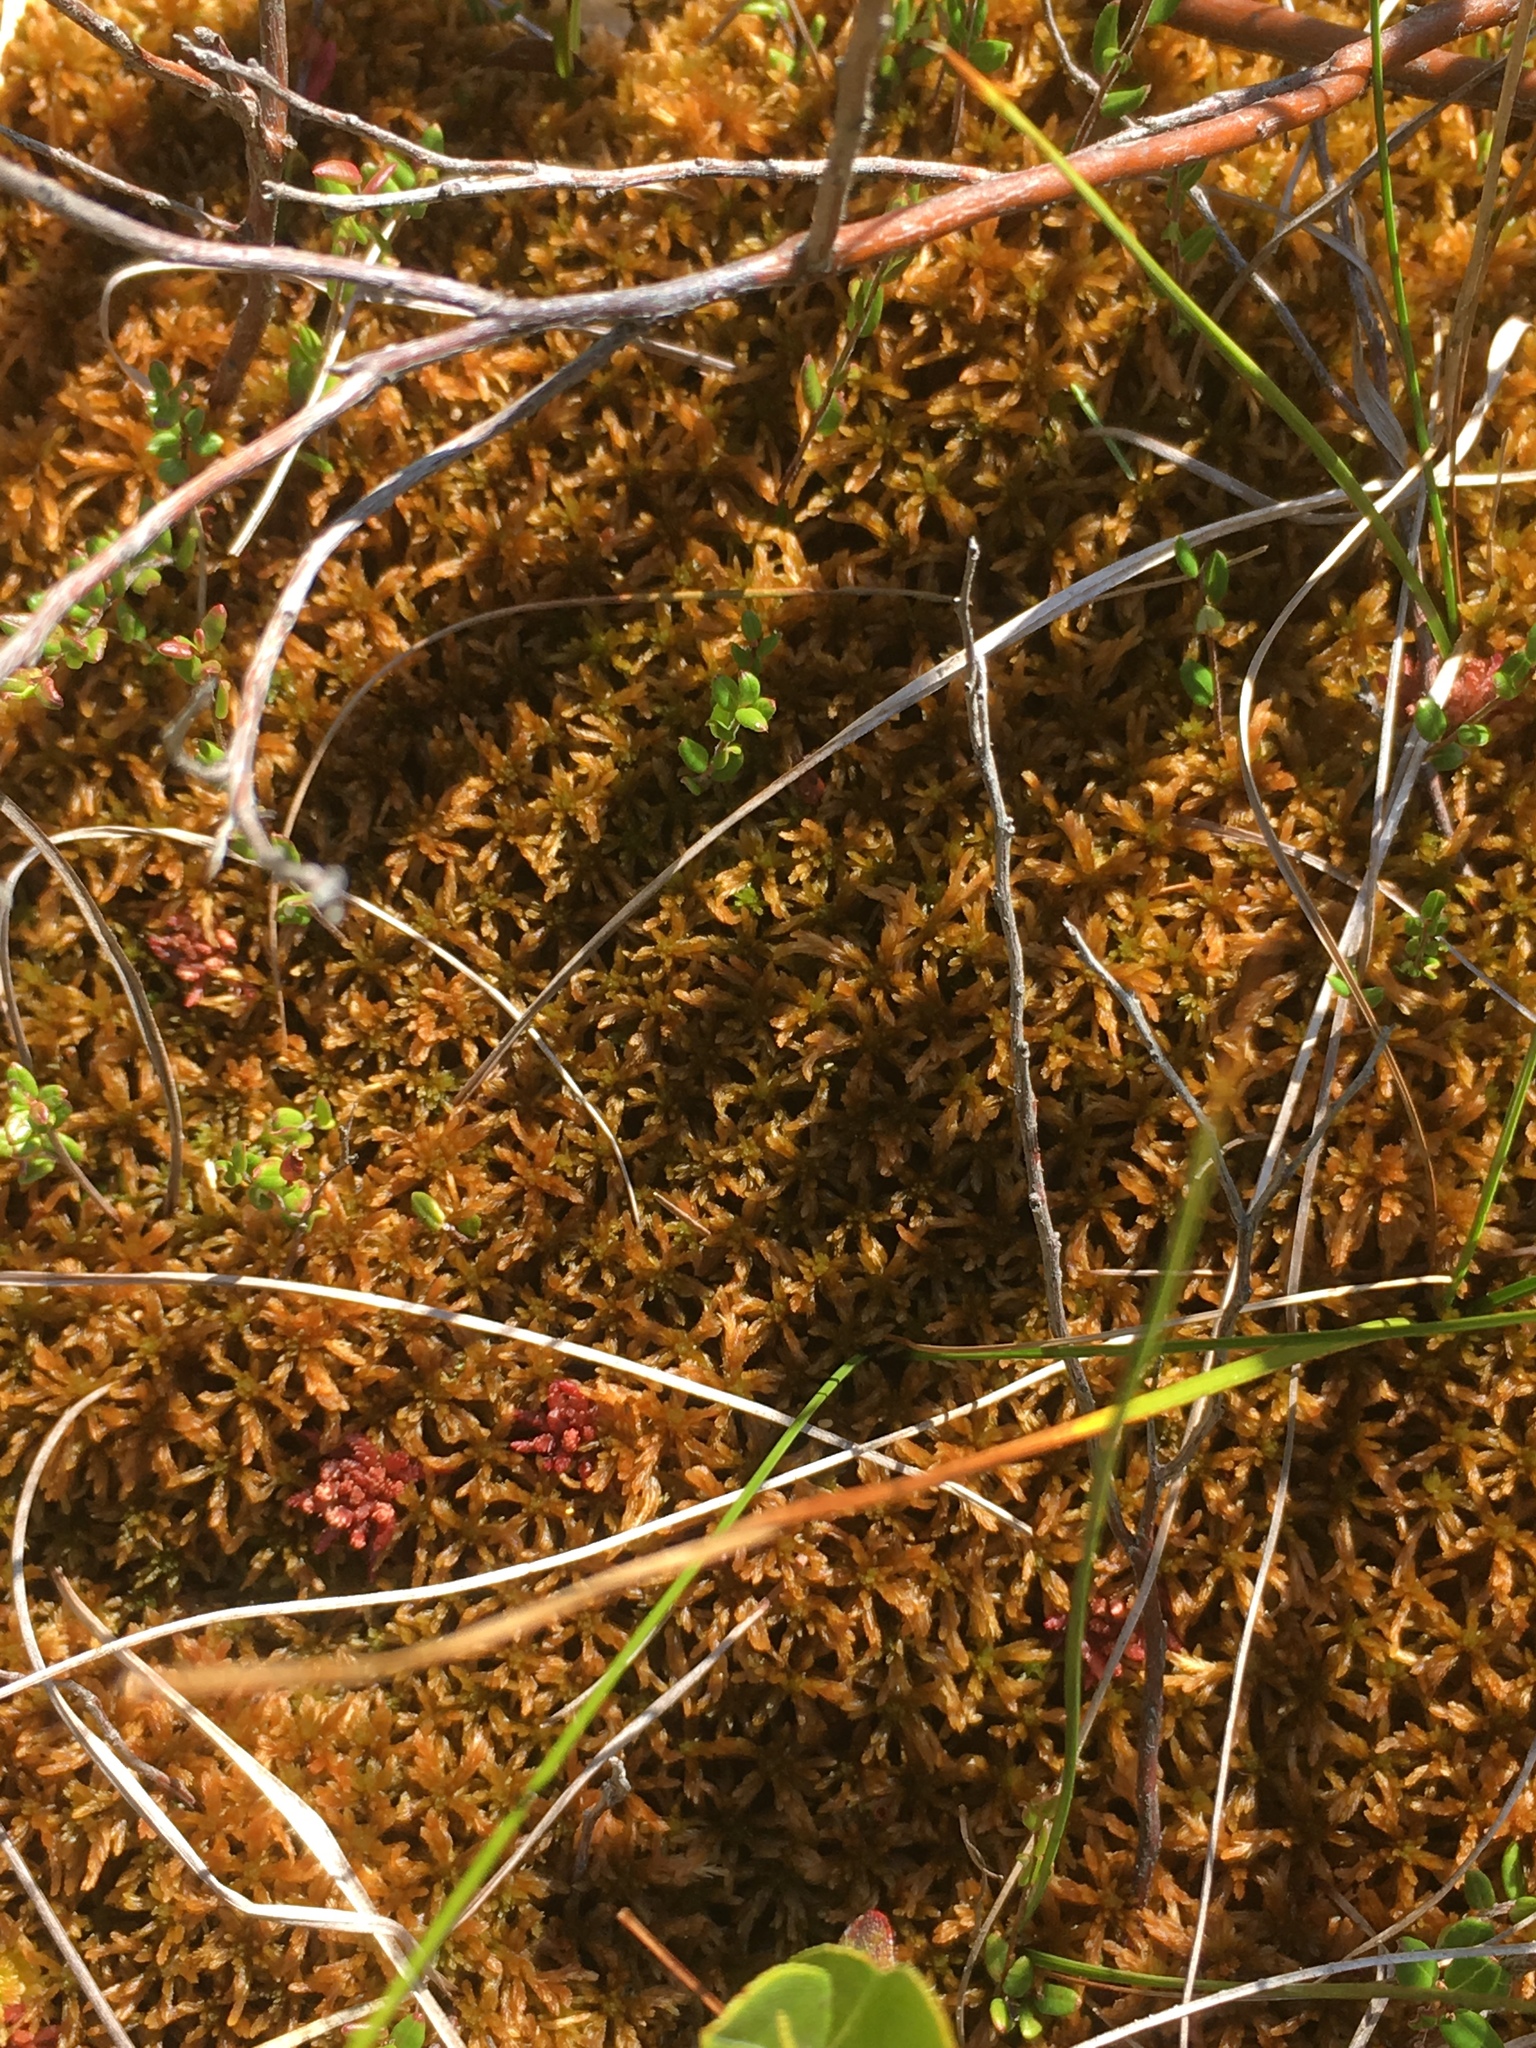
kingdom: Plantae
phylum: Bryophyta
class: Sphagnopsida
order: Sphagnales
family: Sphagnaceae
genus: Sphagnum
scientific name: Sphagnum fuscum
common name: Brown peat moss
